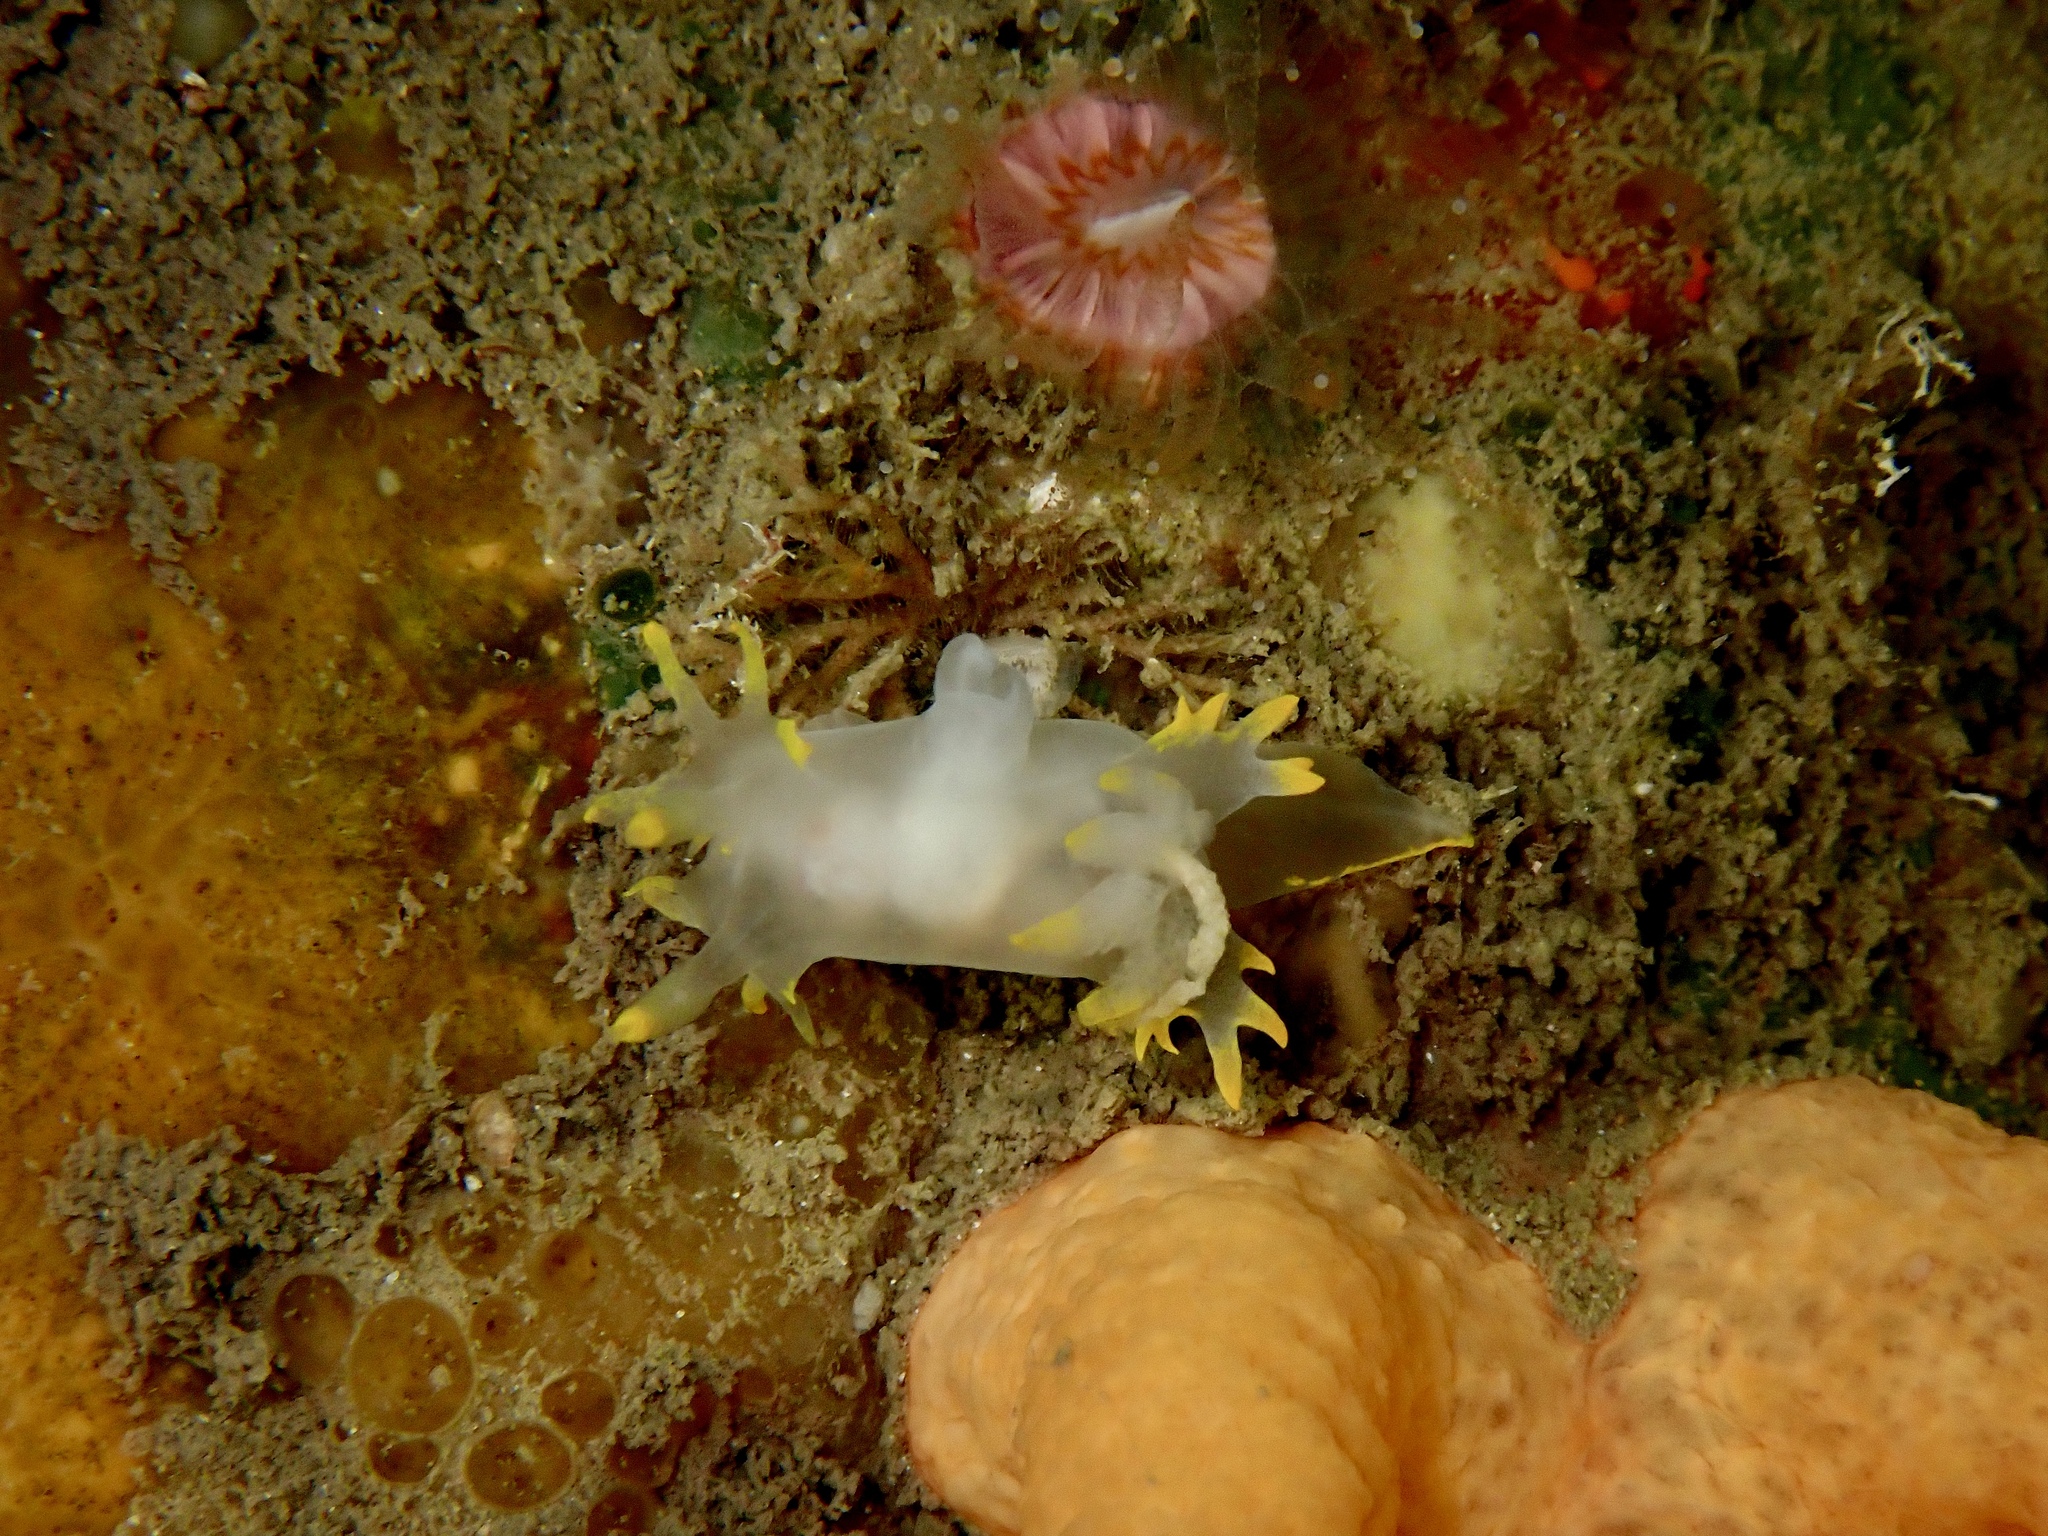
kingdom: Animalia
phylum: Mollusca
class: Gastropoda
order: Nudibranchia
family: Polyceridae
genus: Polycera
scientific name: Polycera faeroensis
